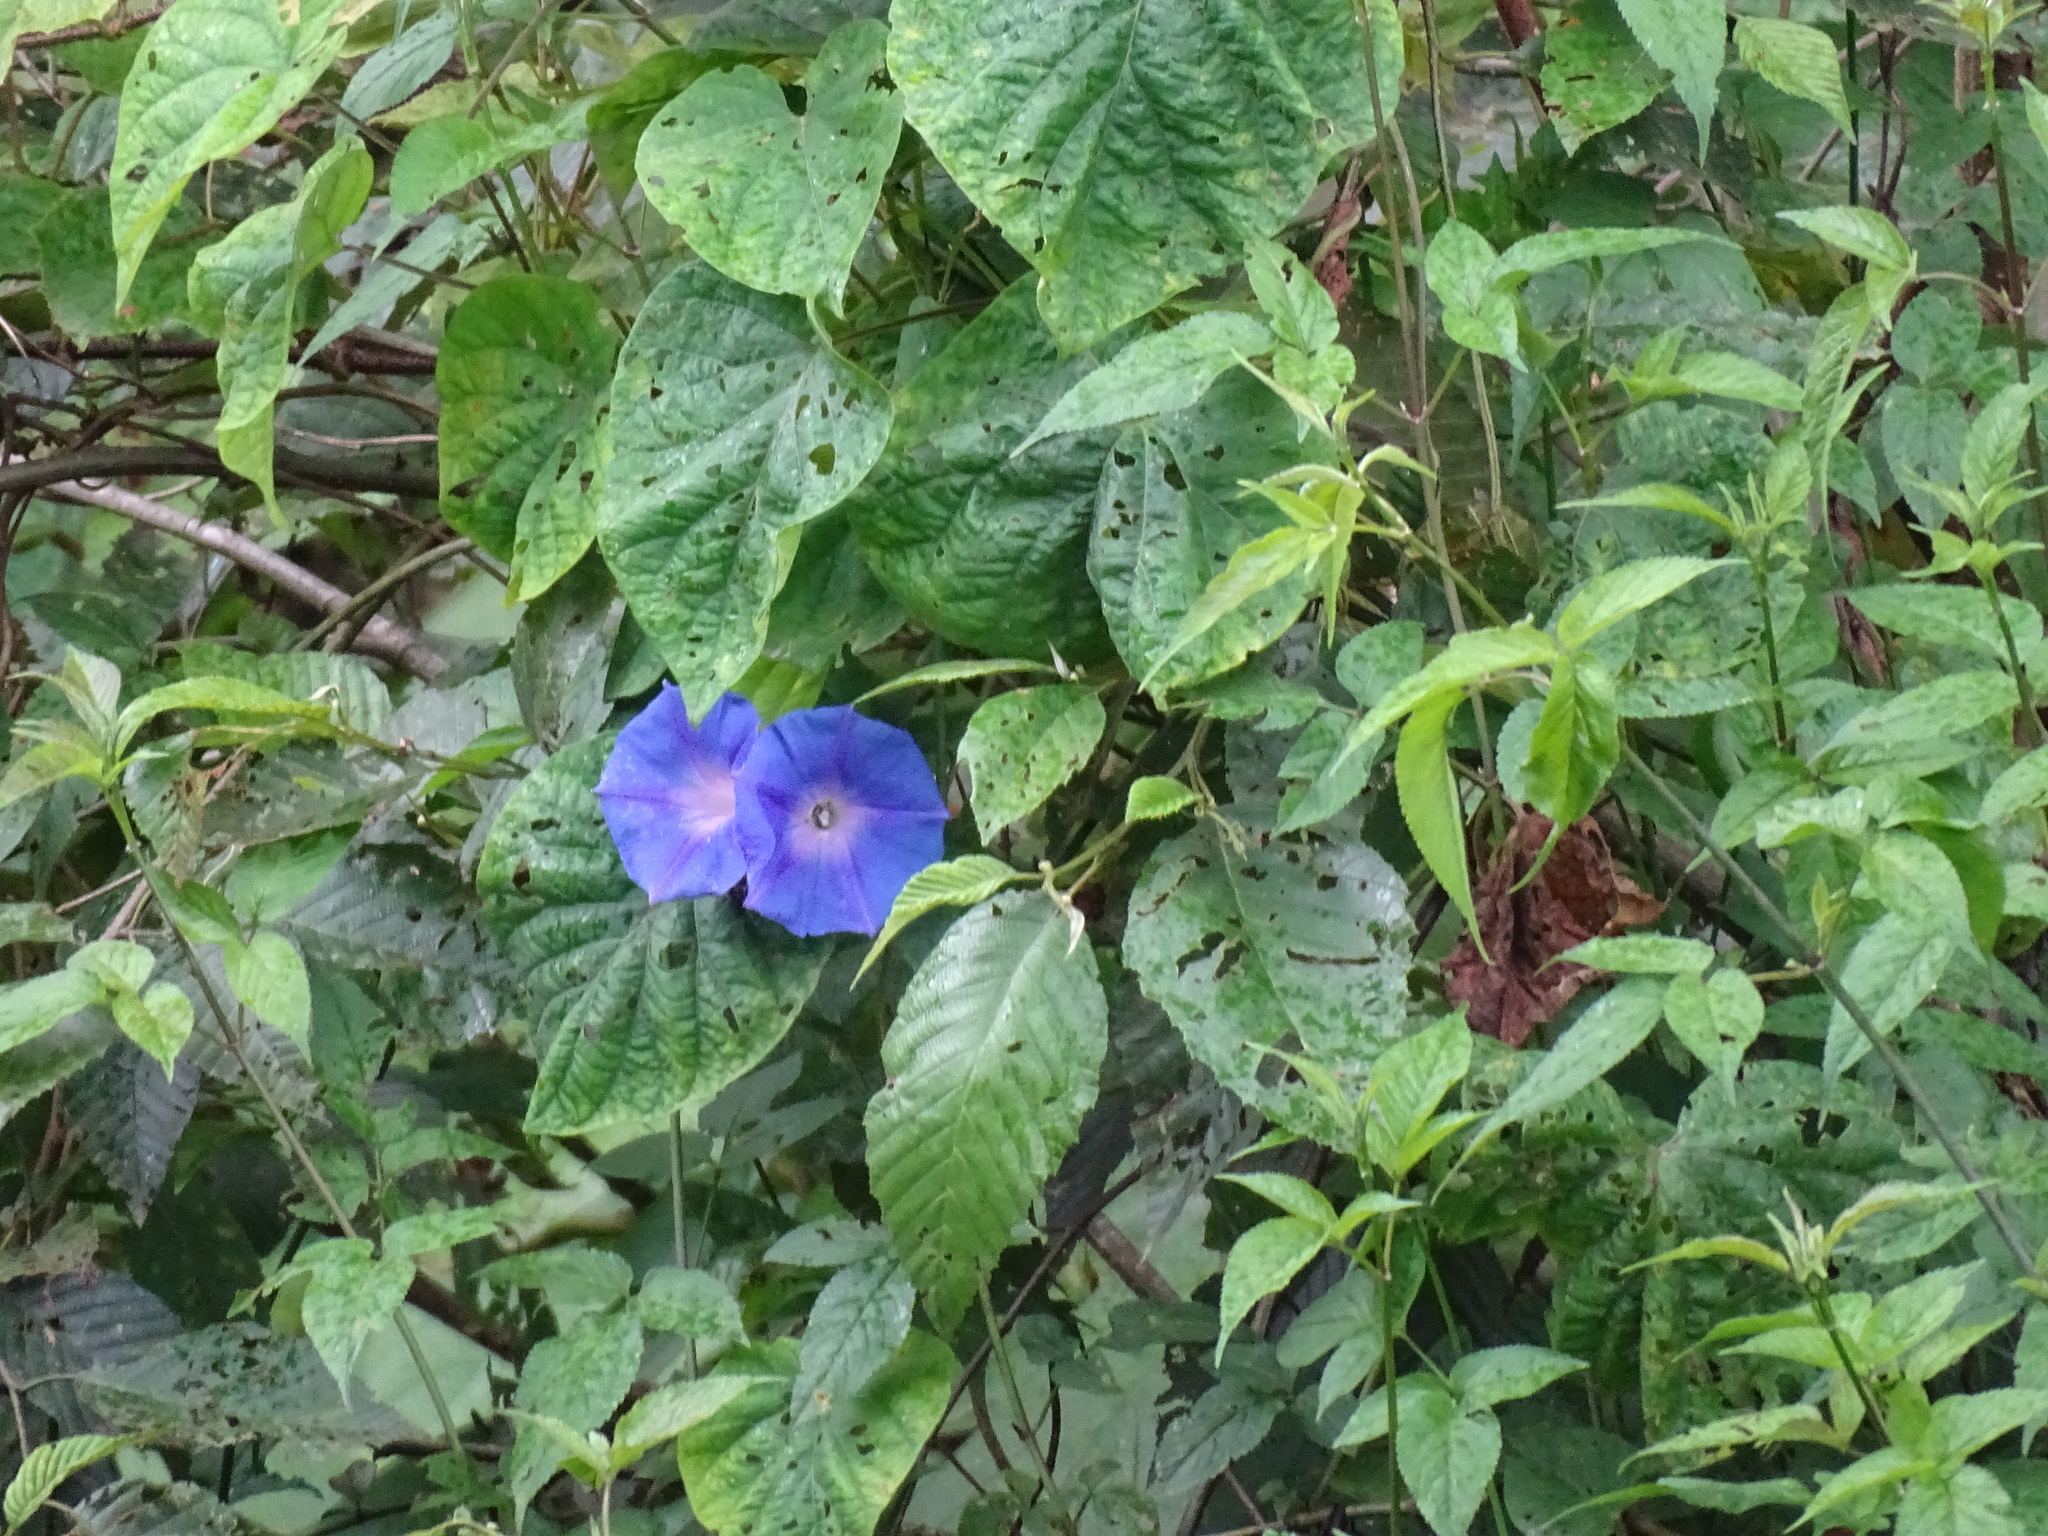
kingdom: Plantae
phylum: Tracheophyta
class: Magnoliopsida
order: Solanales
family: Convolvulaceae
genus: Ipomoea
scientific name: Ipomoea indica
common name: Blue dawnflower
